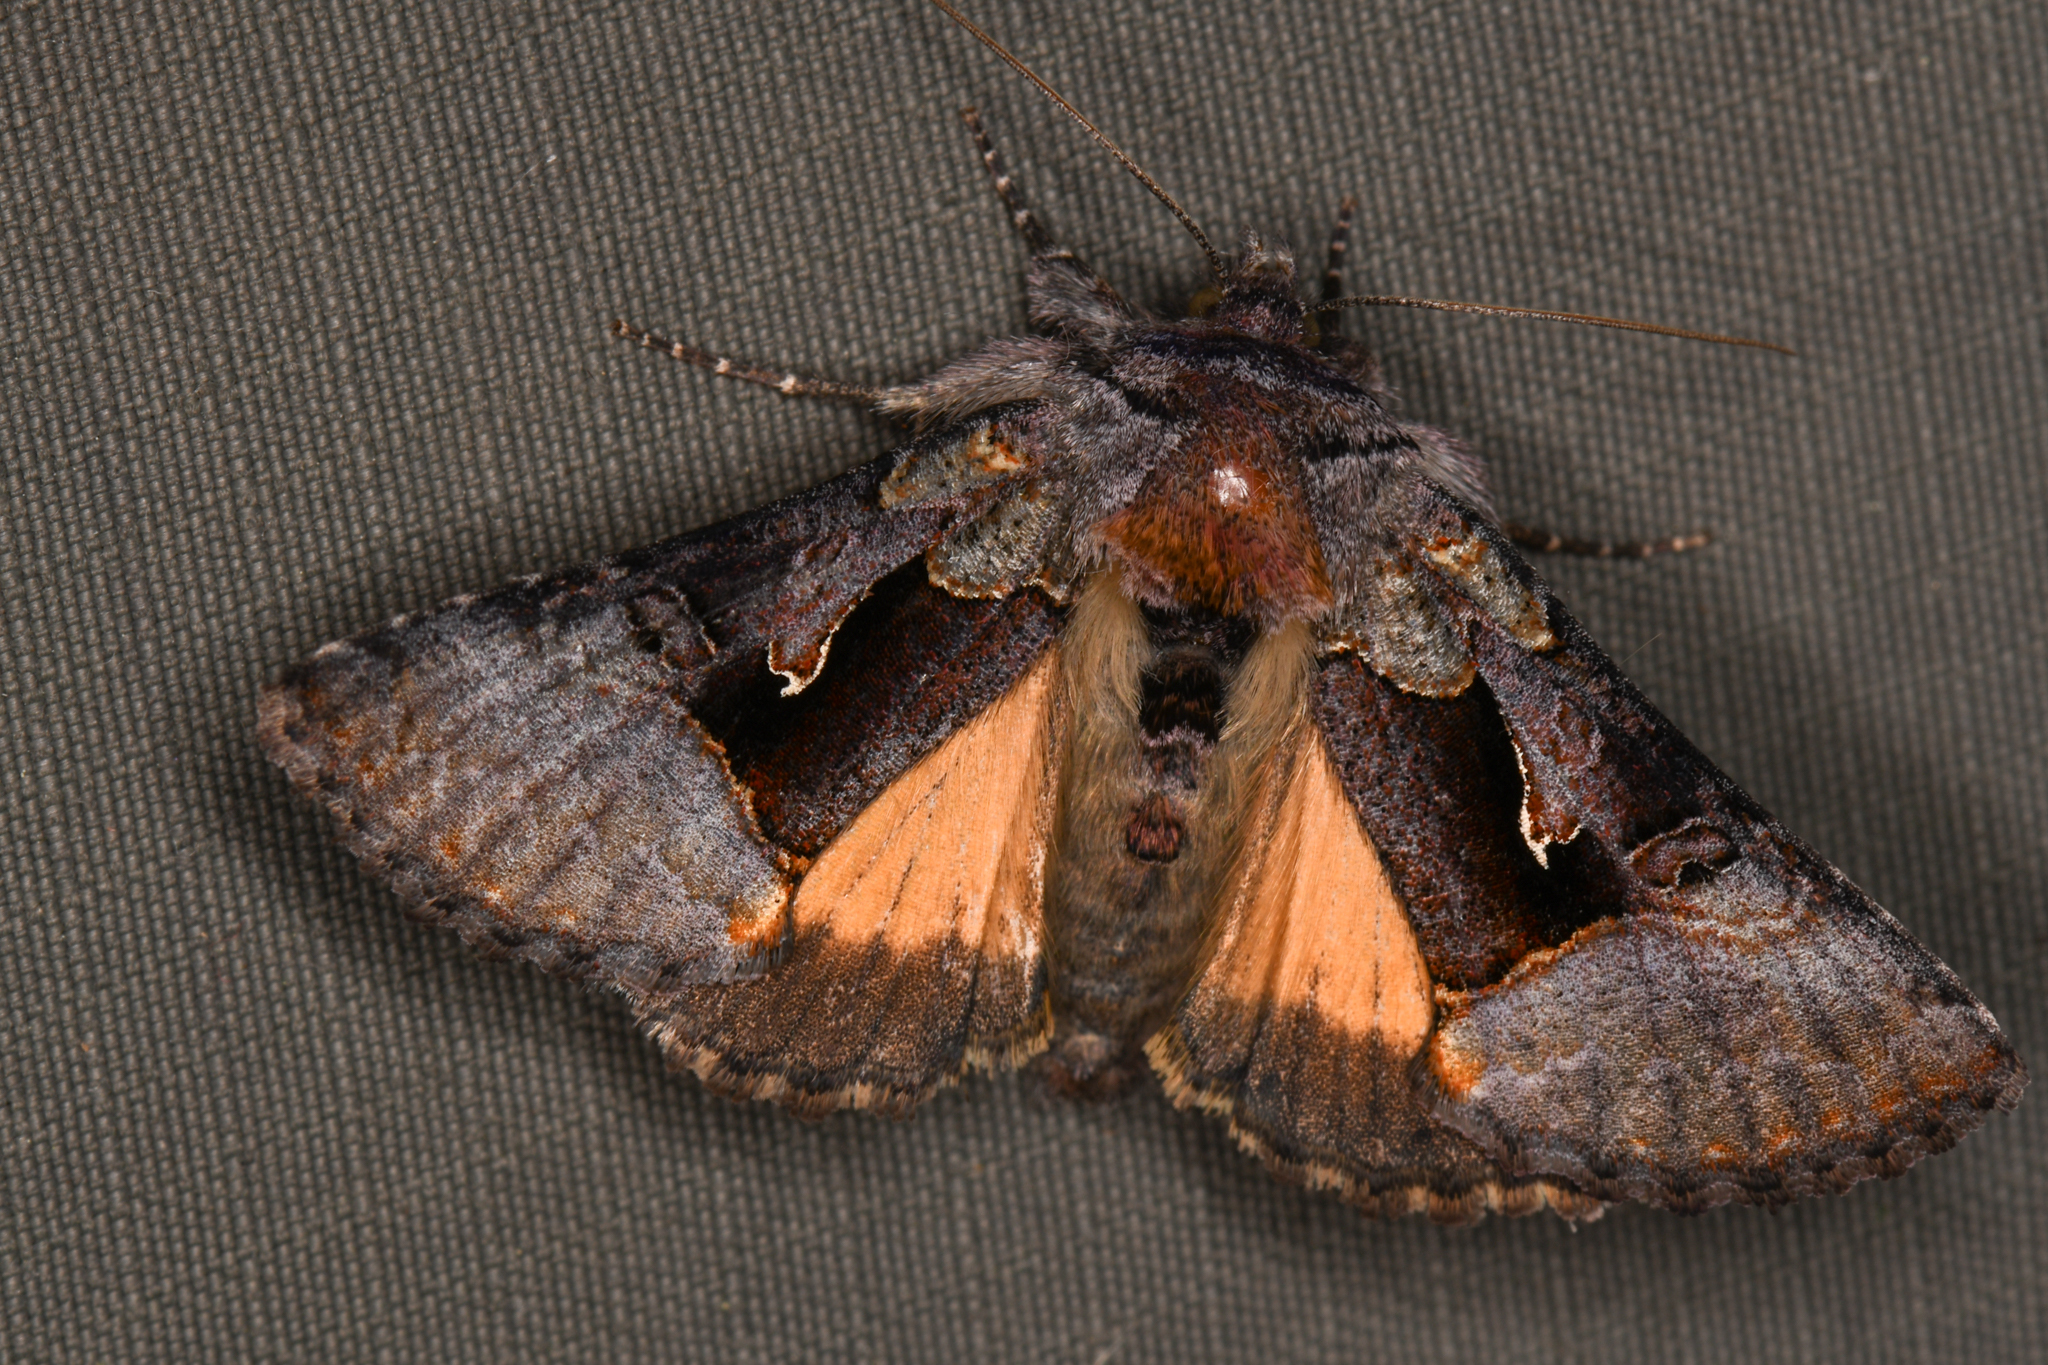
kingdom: Animalia
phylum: Arthropoda
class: Insecta
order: Lepidoptera
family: Noctuidae
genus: Syngrapha
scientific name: Syngrapha borea
